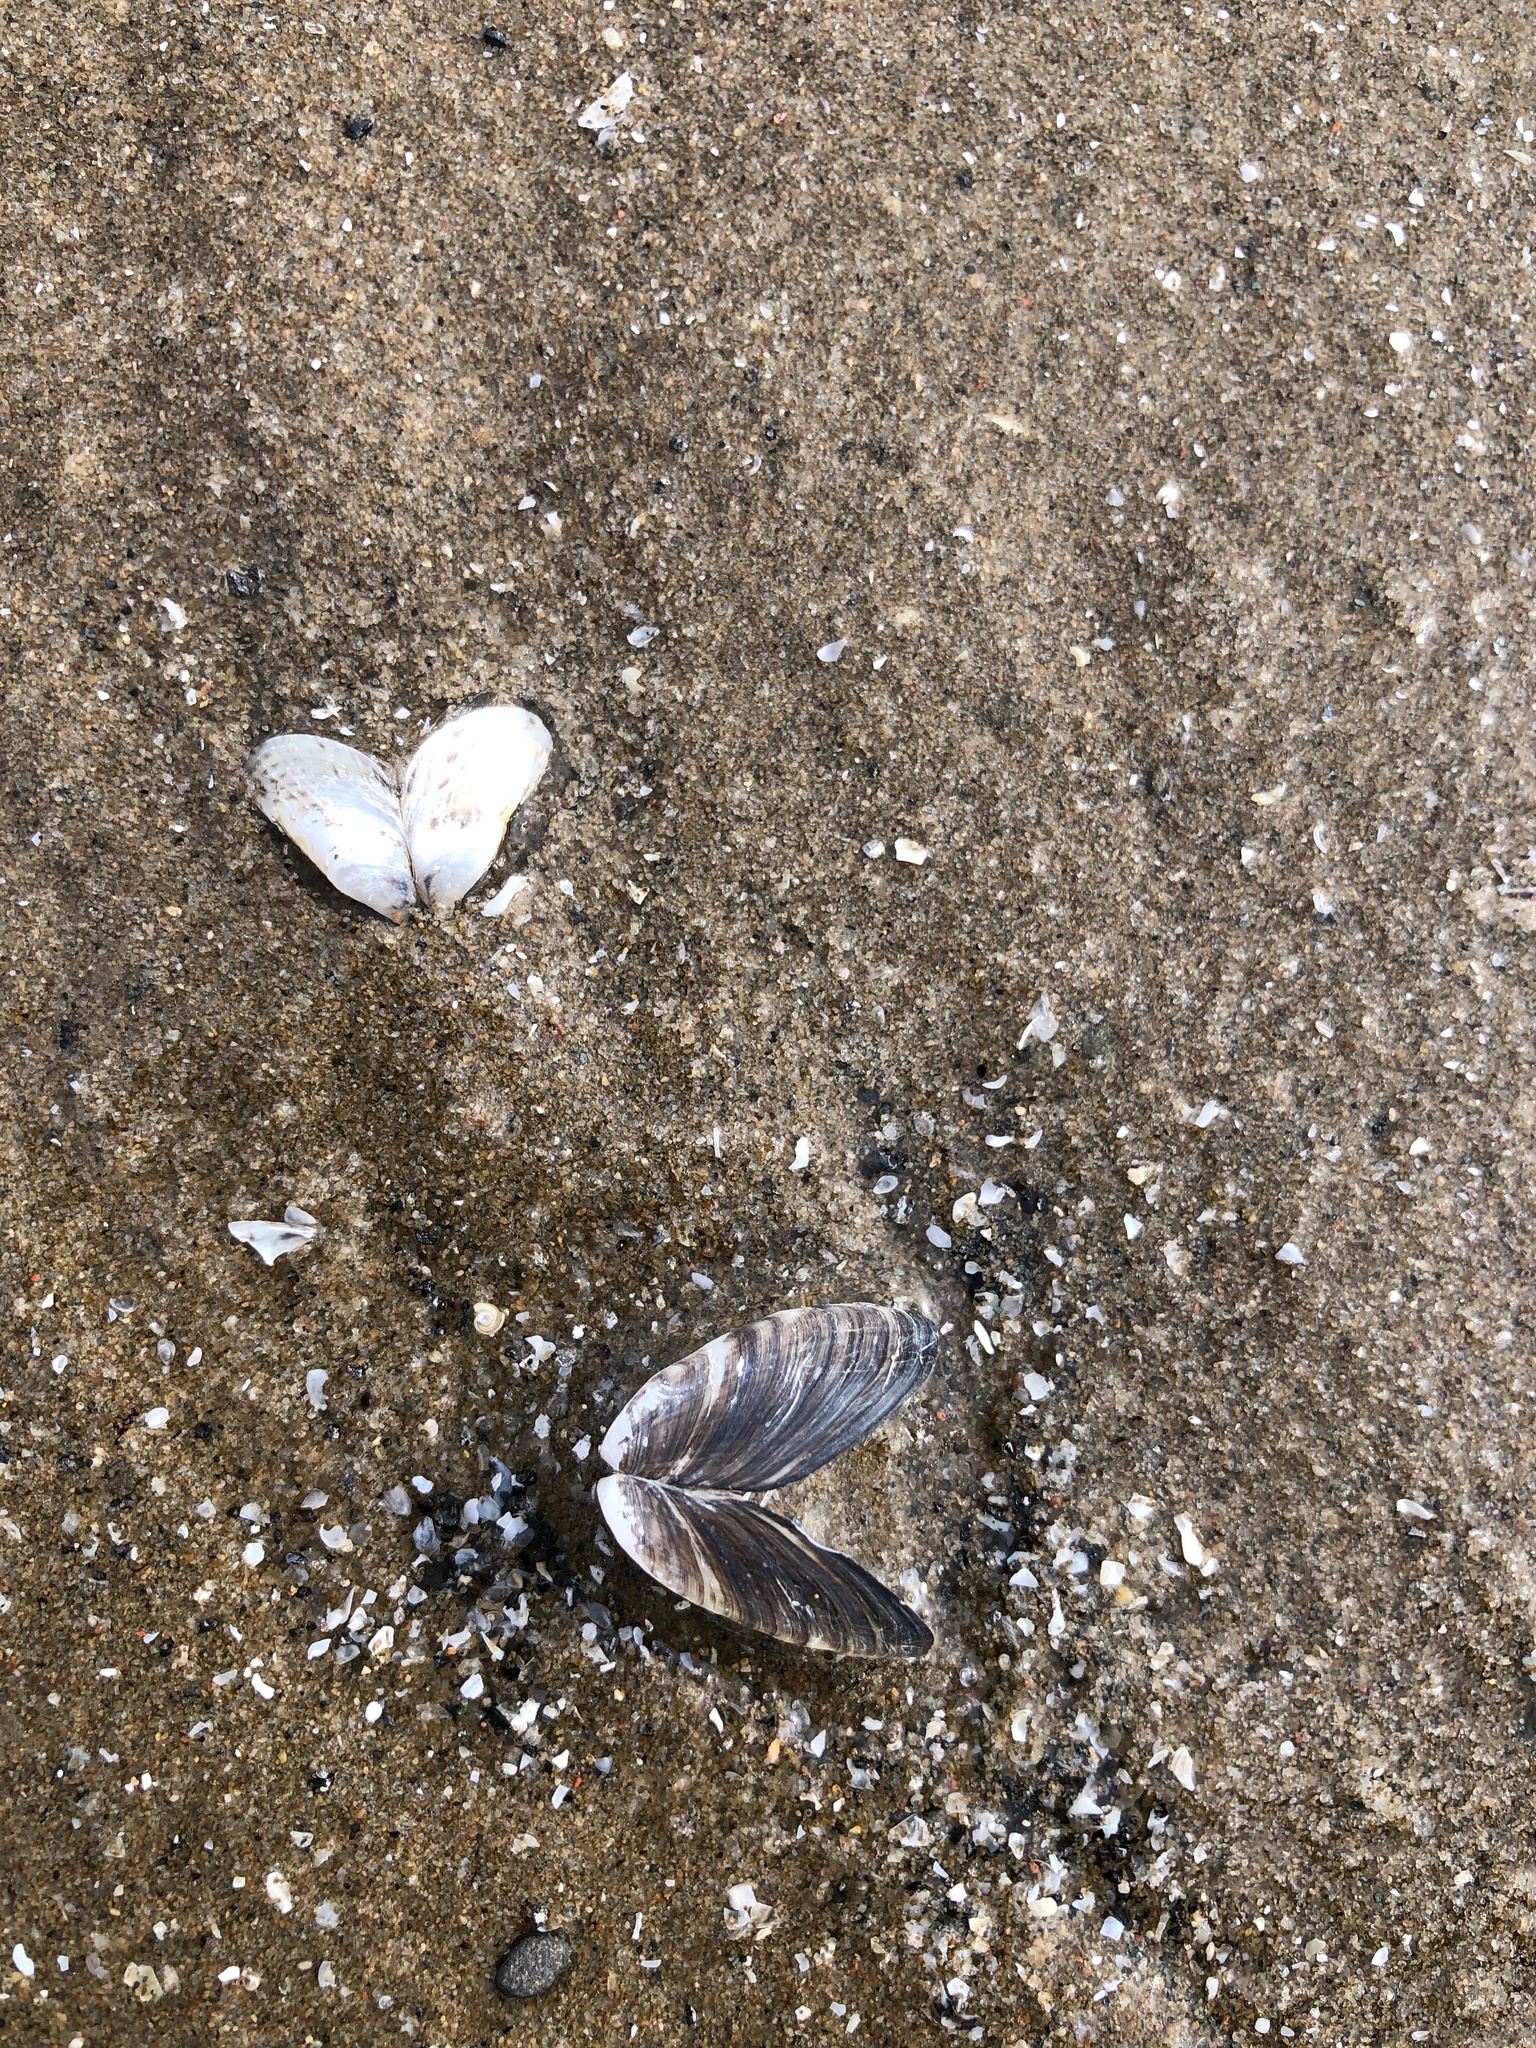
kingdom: Animalia
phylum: Mollusca
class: Bivalvia
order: Myida
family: Dreissenidae
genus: Dreissena
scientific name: Dreissena polymorpha
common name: Zebra mussel
